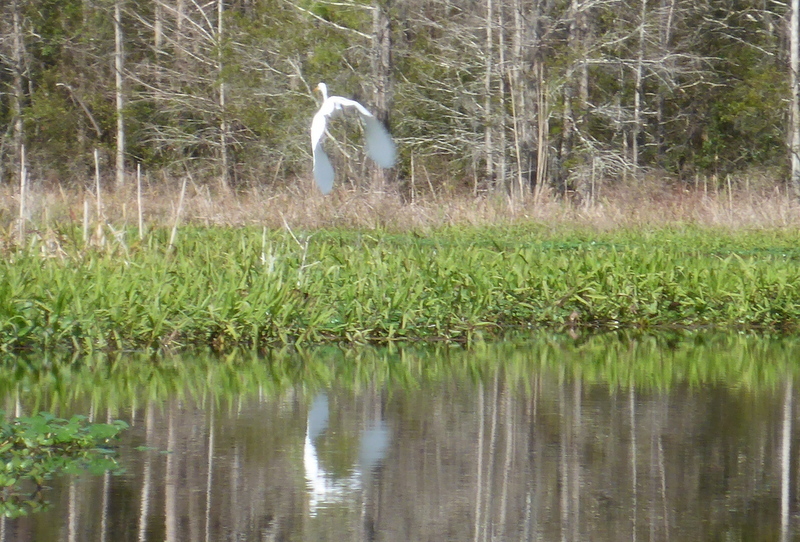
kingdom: Animalia
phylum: Chordata
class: Aves
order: Pelecaniformes
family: Ardeidae
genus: Ardea
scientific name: Ardea alba
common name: Great egret
